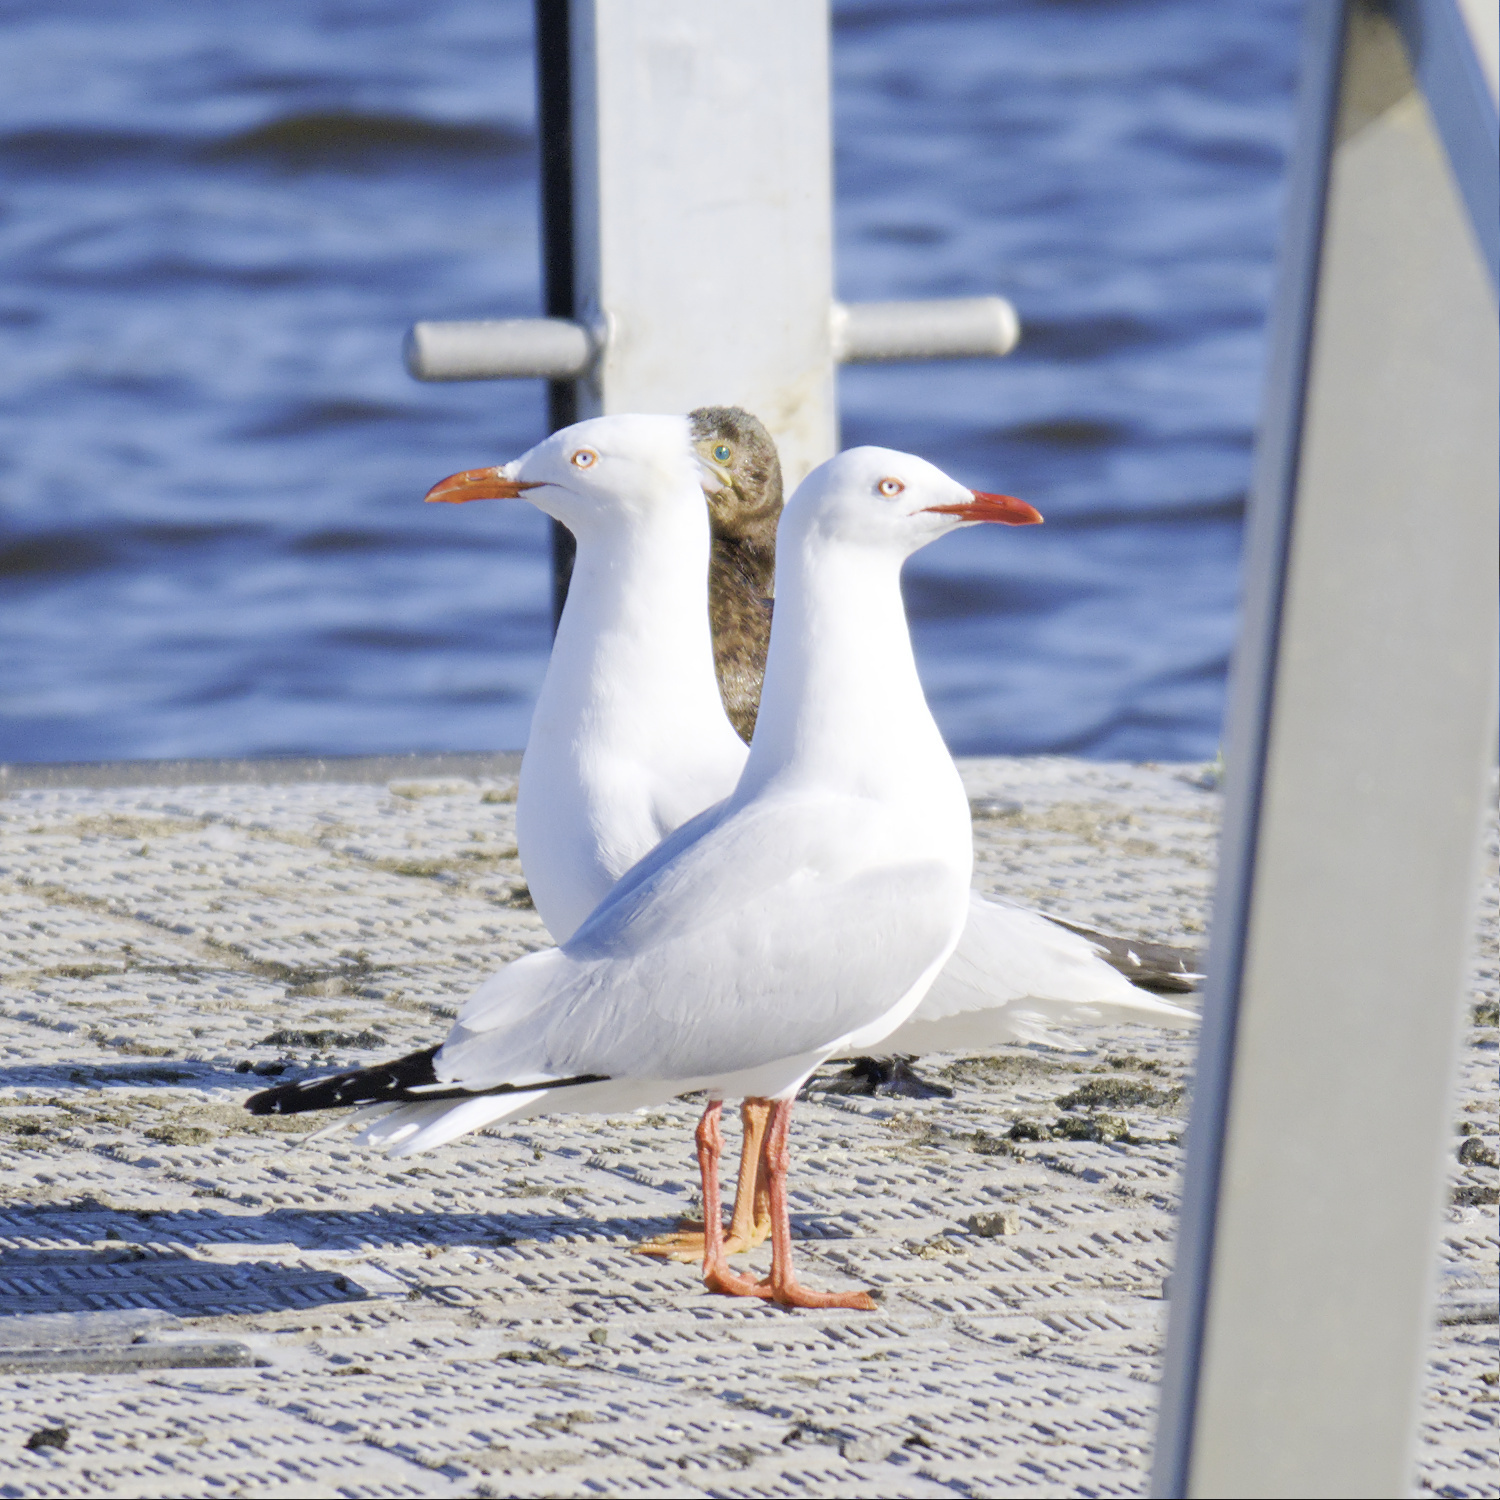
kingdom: Animalia
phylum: Chordata
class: Aves
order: Charadriiformes
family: Laridae
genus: Chroicocephalus
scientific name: Chroicocephalus novaehollandiae
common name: Silver gull
